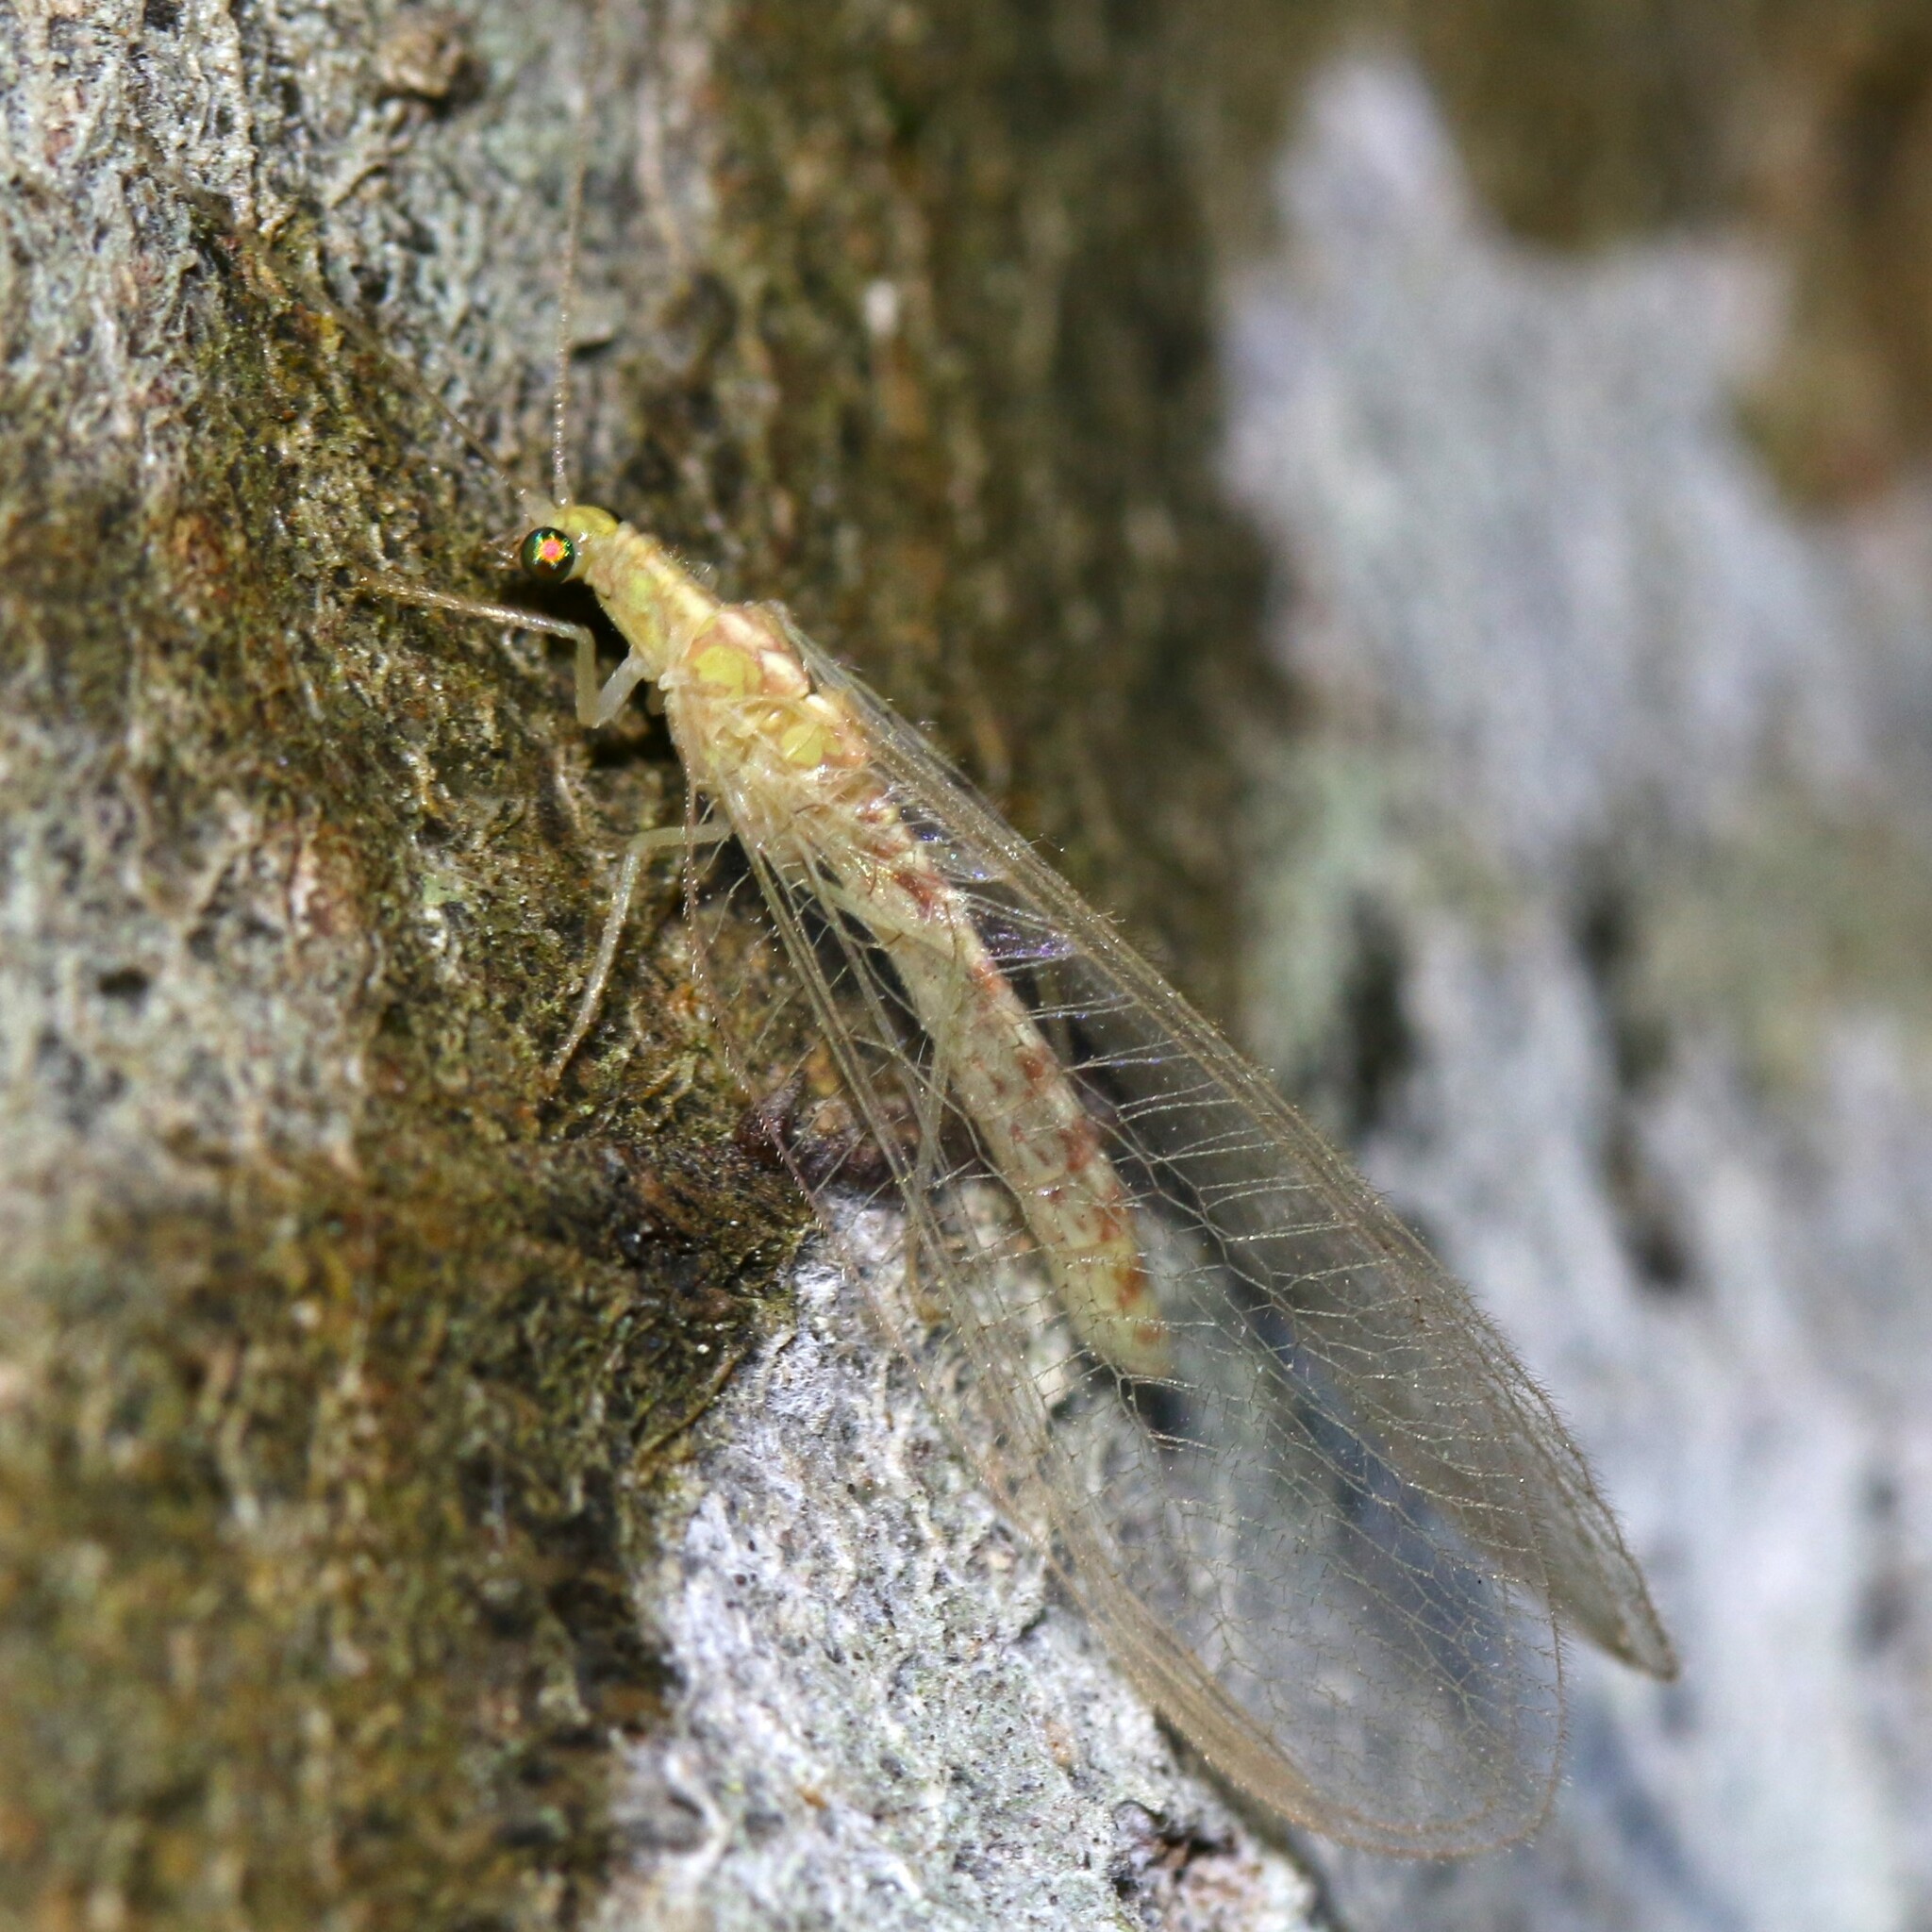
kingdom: Animalia
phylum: Arthropoda
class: Insecta
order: Neuroptera
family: Chrysopidae
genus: Chrysoperla
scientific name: Chrysoperla
